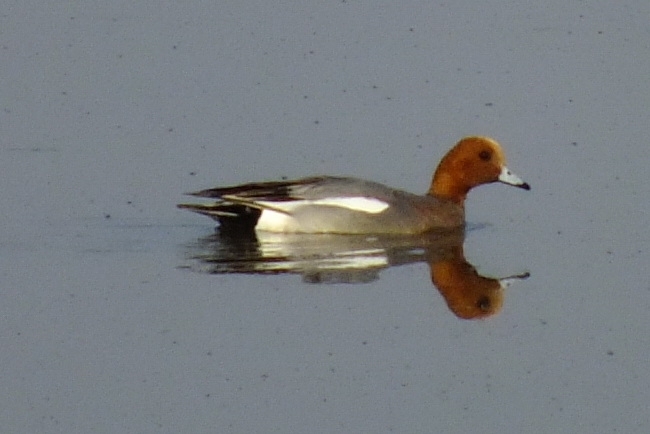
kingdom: Animalia
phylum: Chordata
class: Aves
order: Anseriformes
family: Anatidae
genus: Mareca
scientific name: Mareca penelope
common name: Eurasian wigeon
